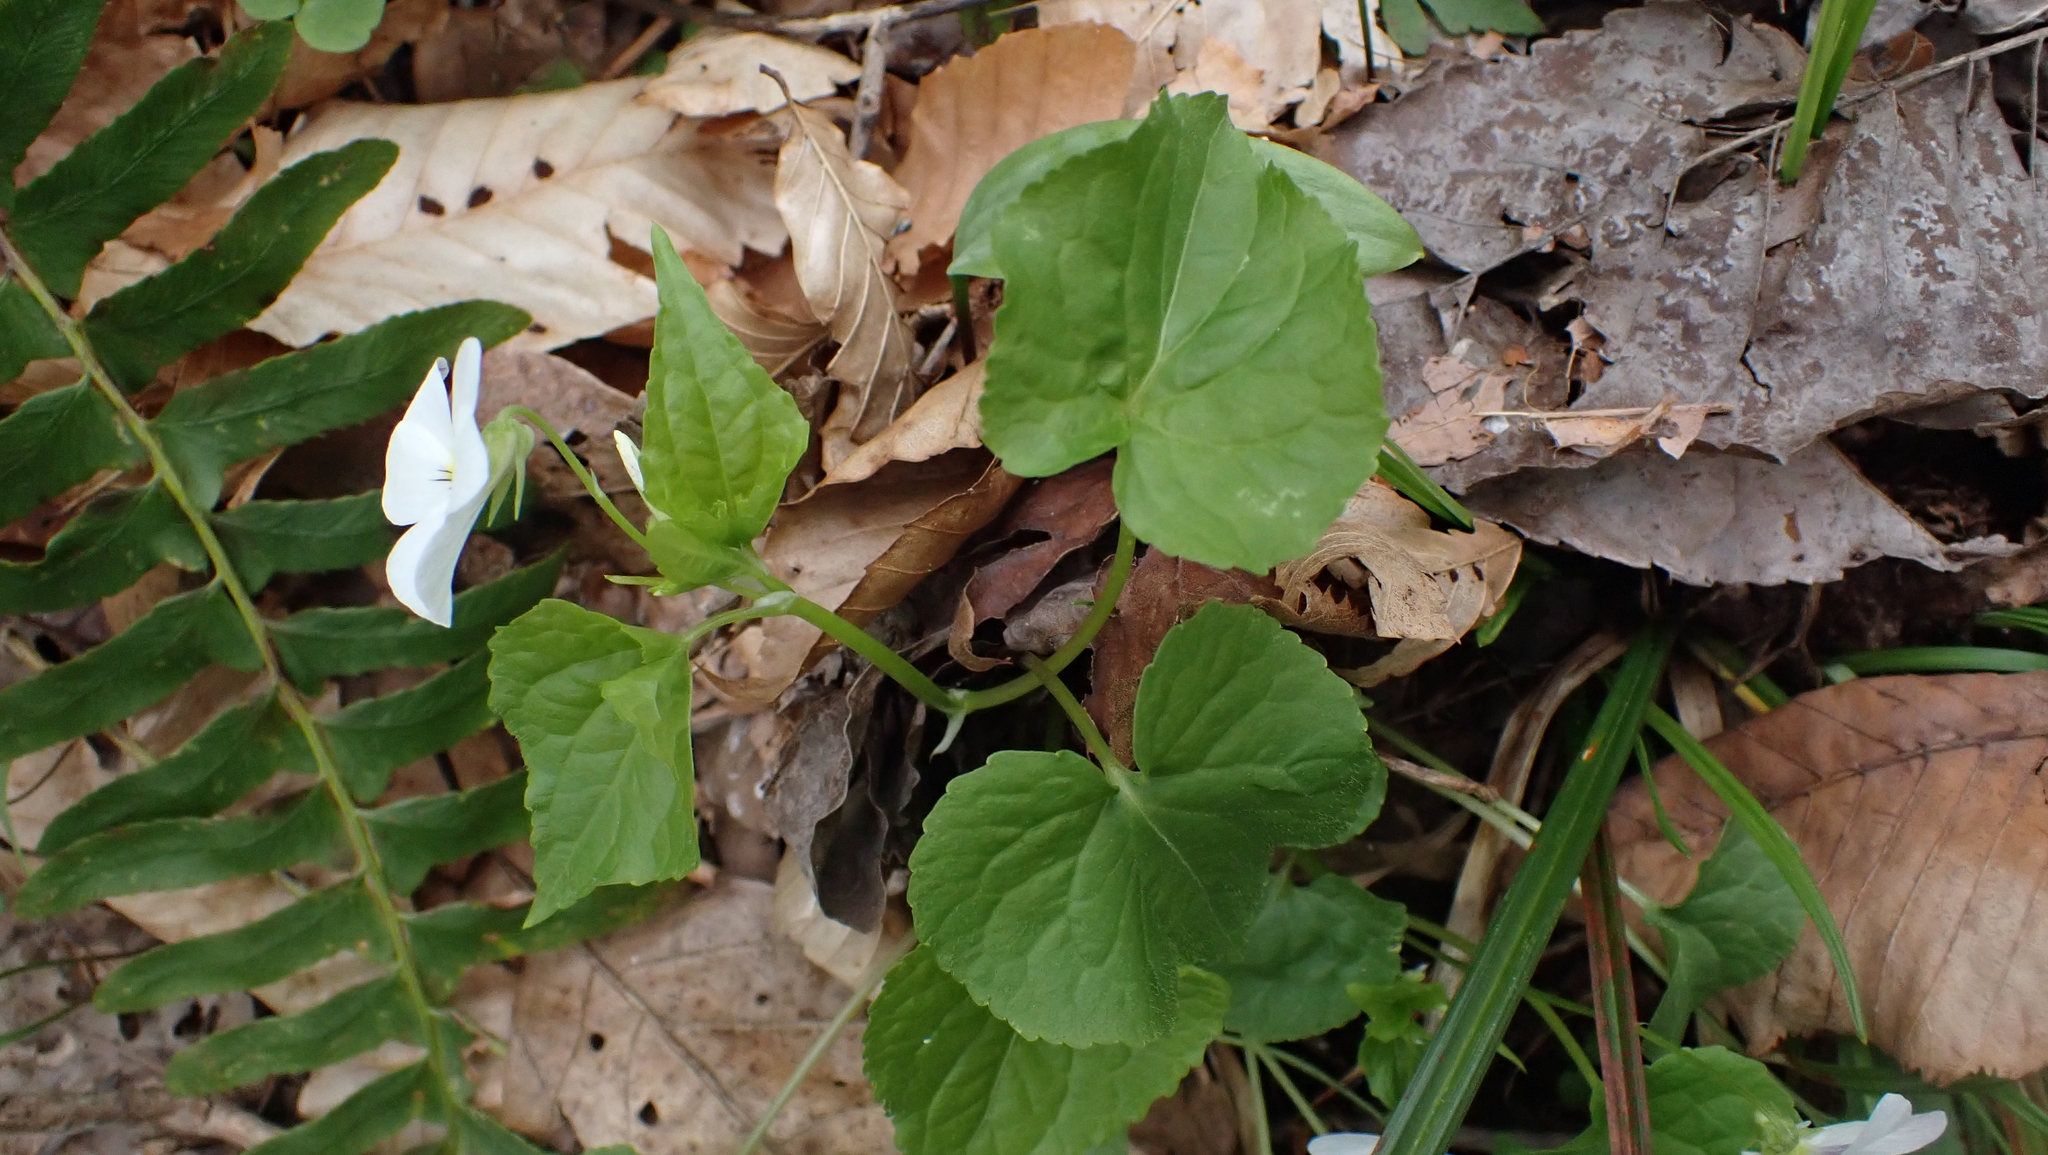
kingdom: Plantae
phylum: Tracheophyta
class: Magnoliopsida
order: Malpighiales
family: Violaceae
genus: Viola
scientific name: Viola canadensis
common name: Canada violet
